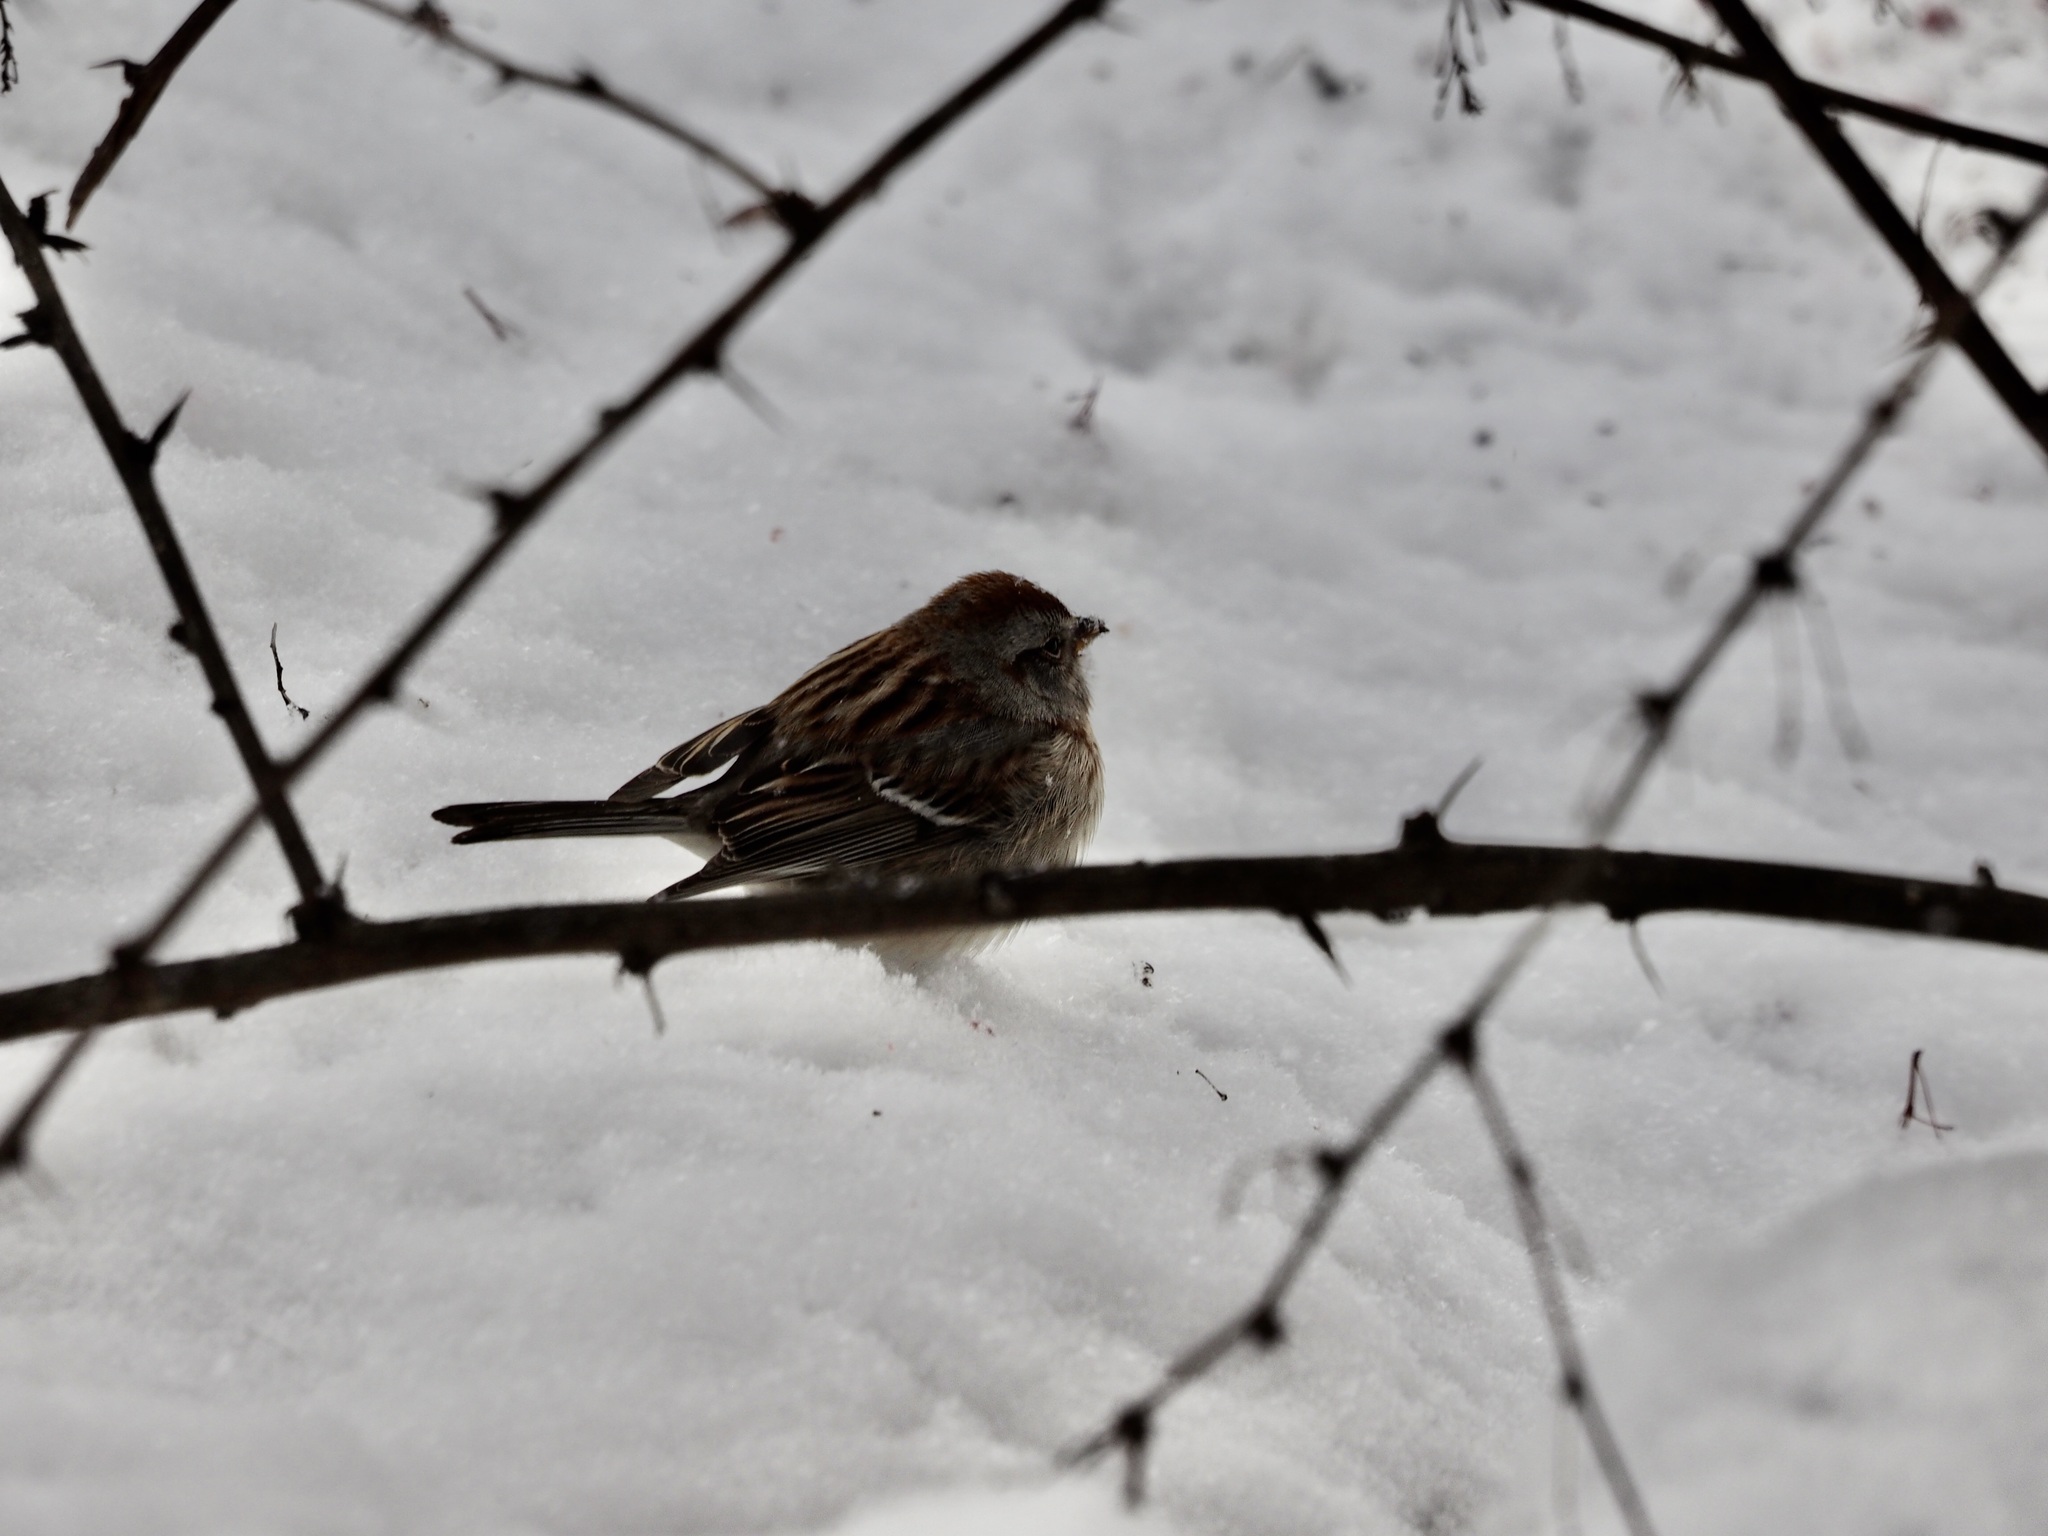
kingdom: Animalia
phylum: Chordata
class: Aves
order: Passeriformes
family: Passerellidae
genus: Spizelloides
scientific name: Spizelloides arborea
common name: American tree sparrow
